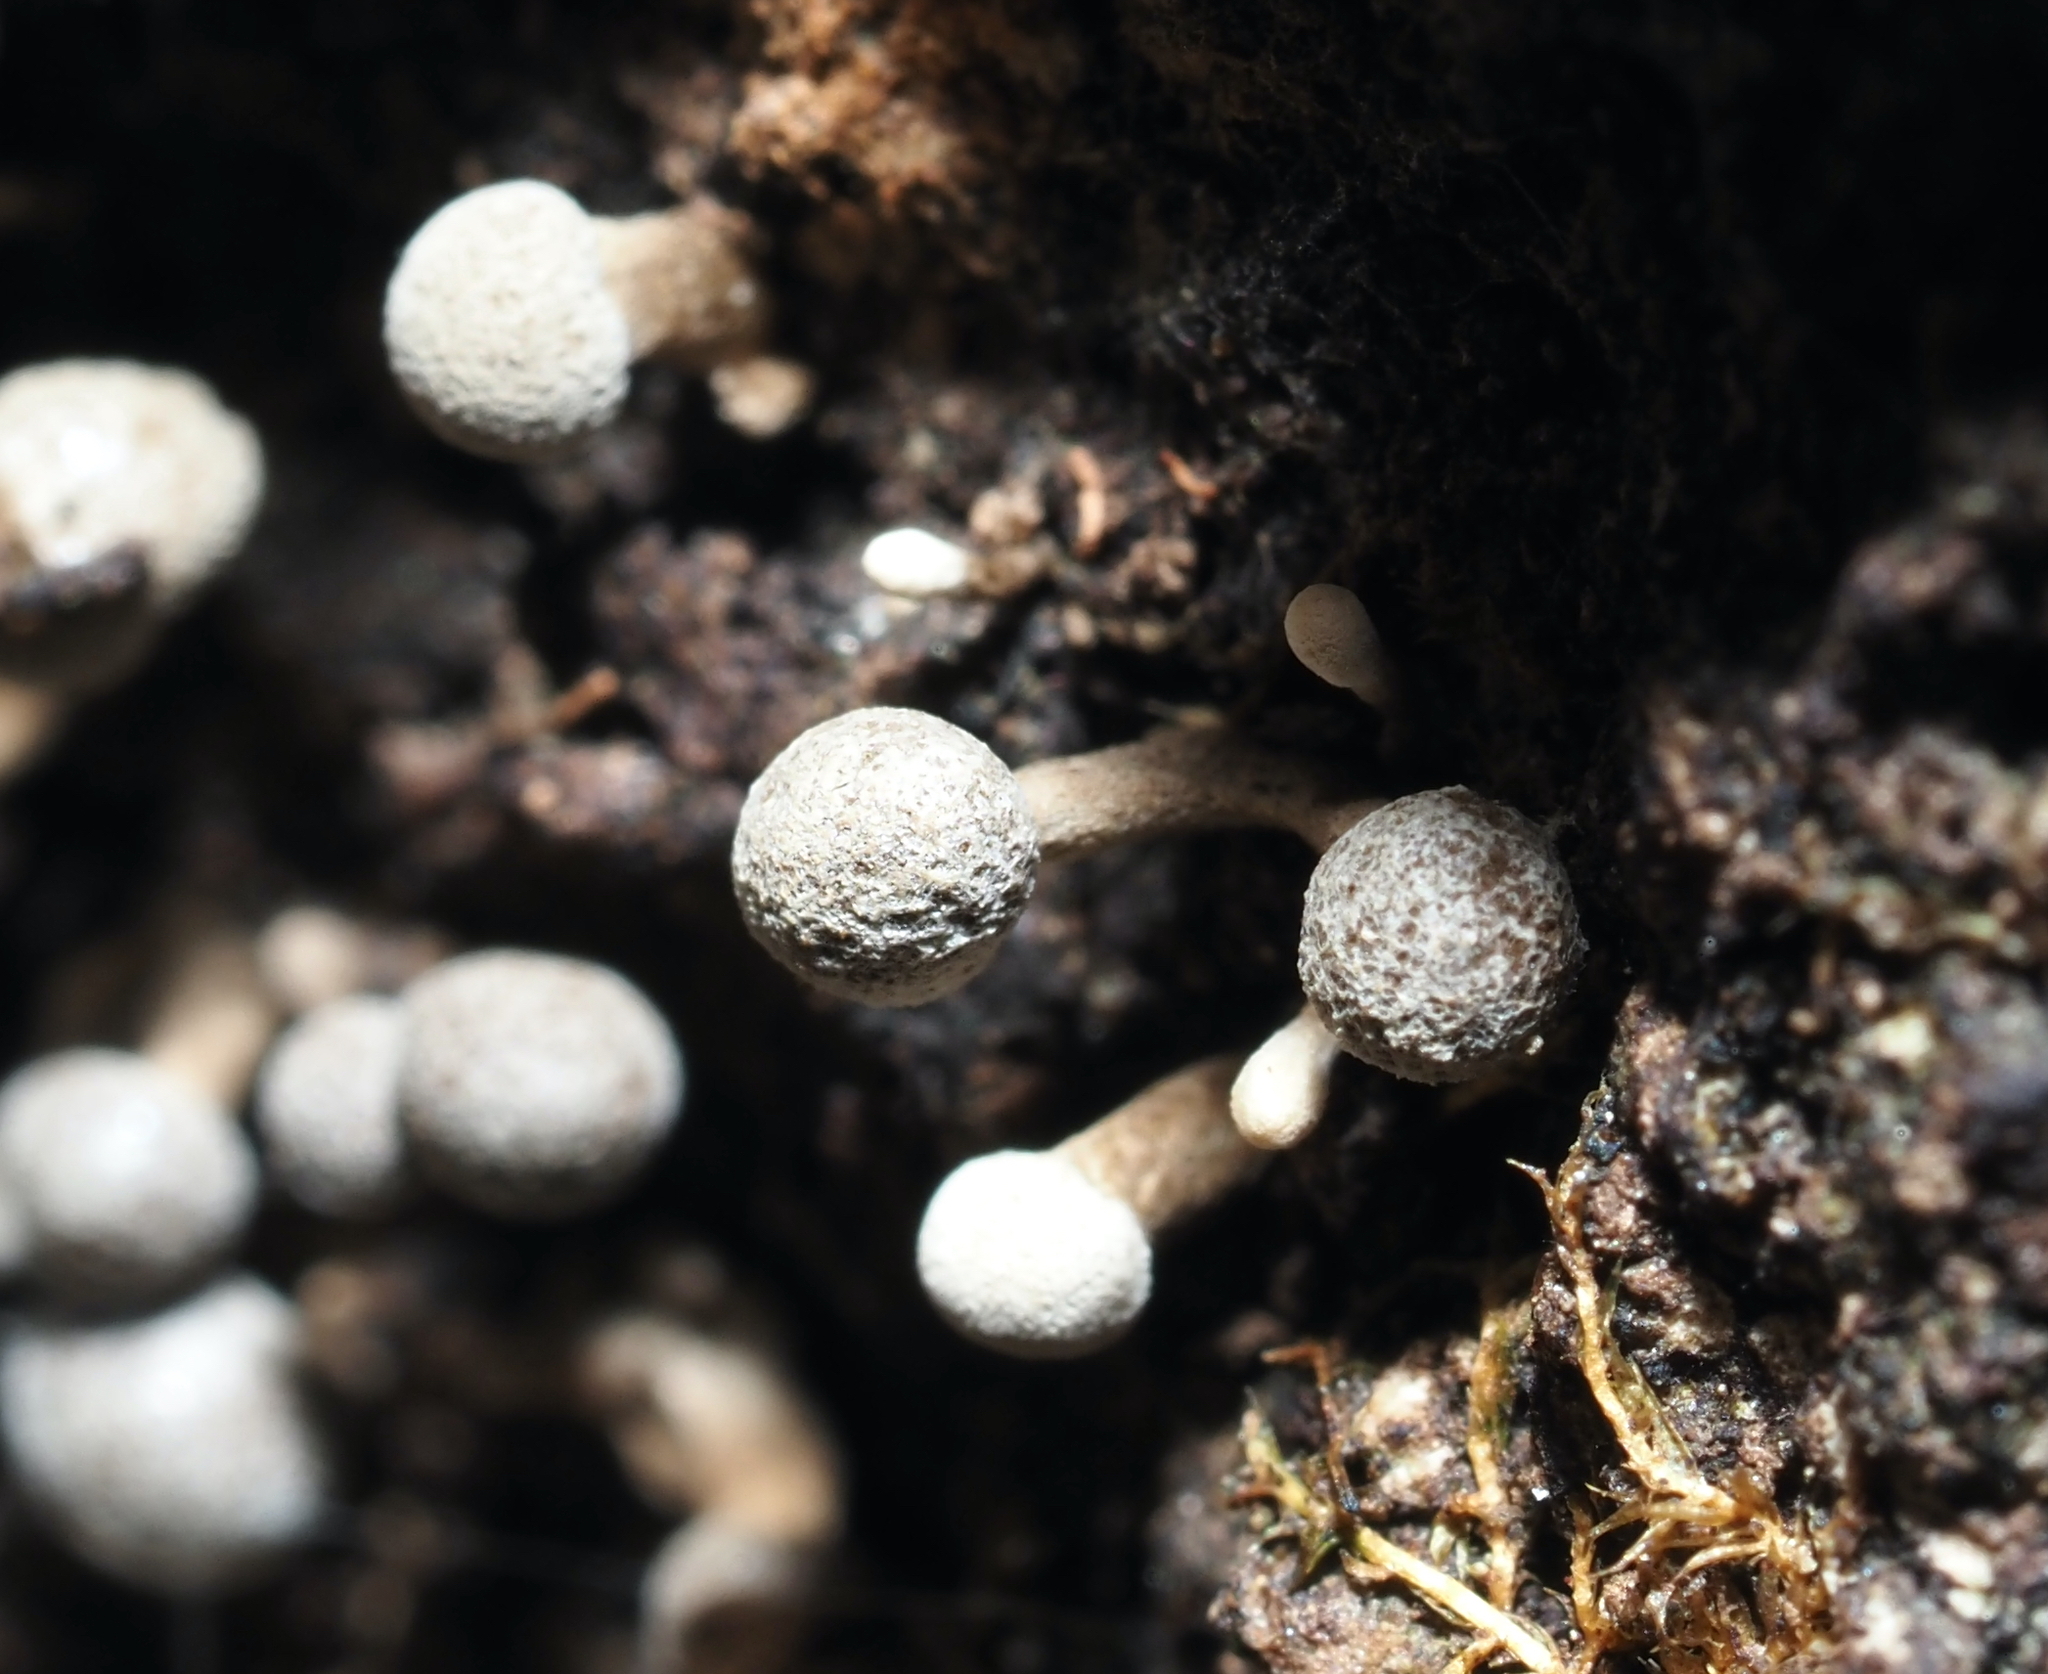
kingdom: Fungi
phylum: Basidiomycota
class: Atractiellomycetes
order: Atractiellales
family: Phleogenaceae
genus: Phleogena
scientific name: Phleogena faginea
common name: Fenugreek stalkball
